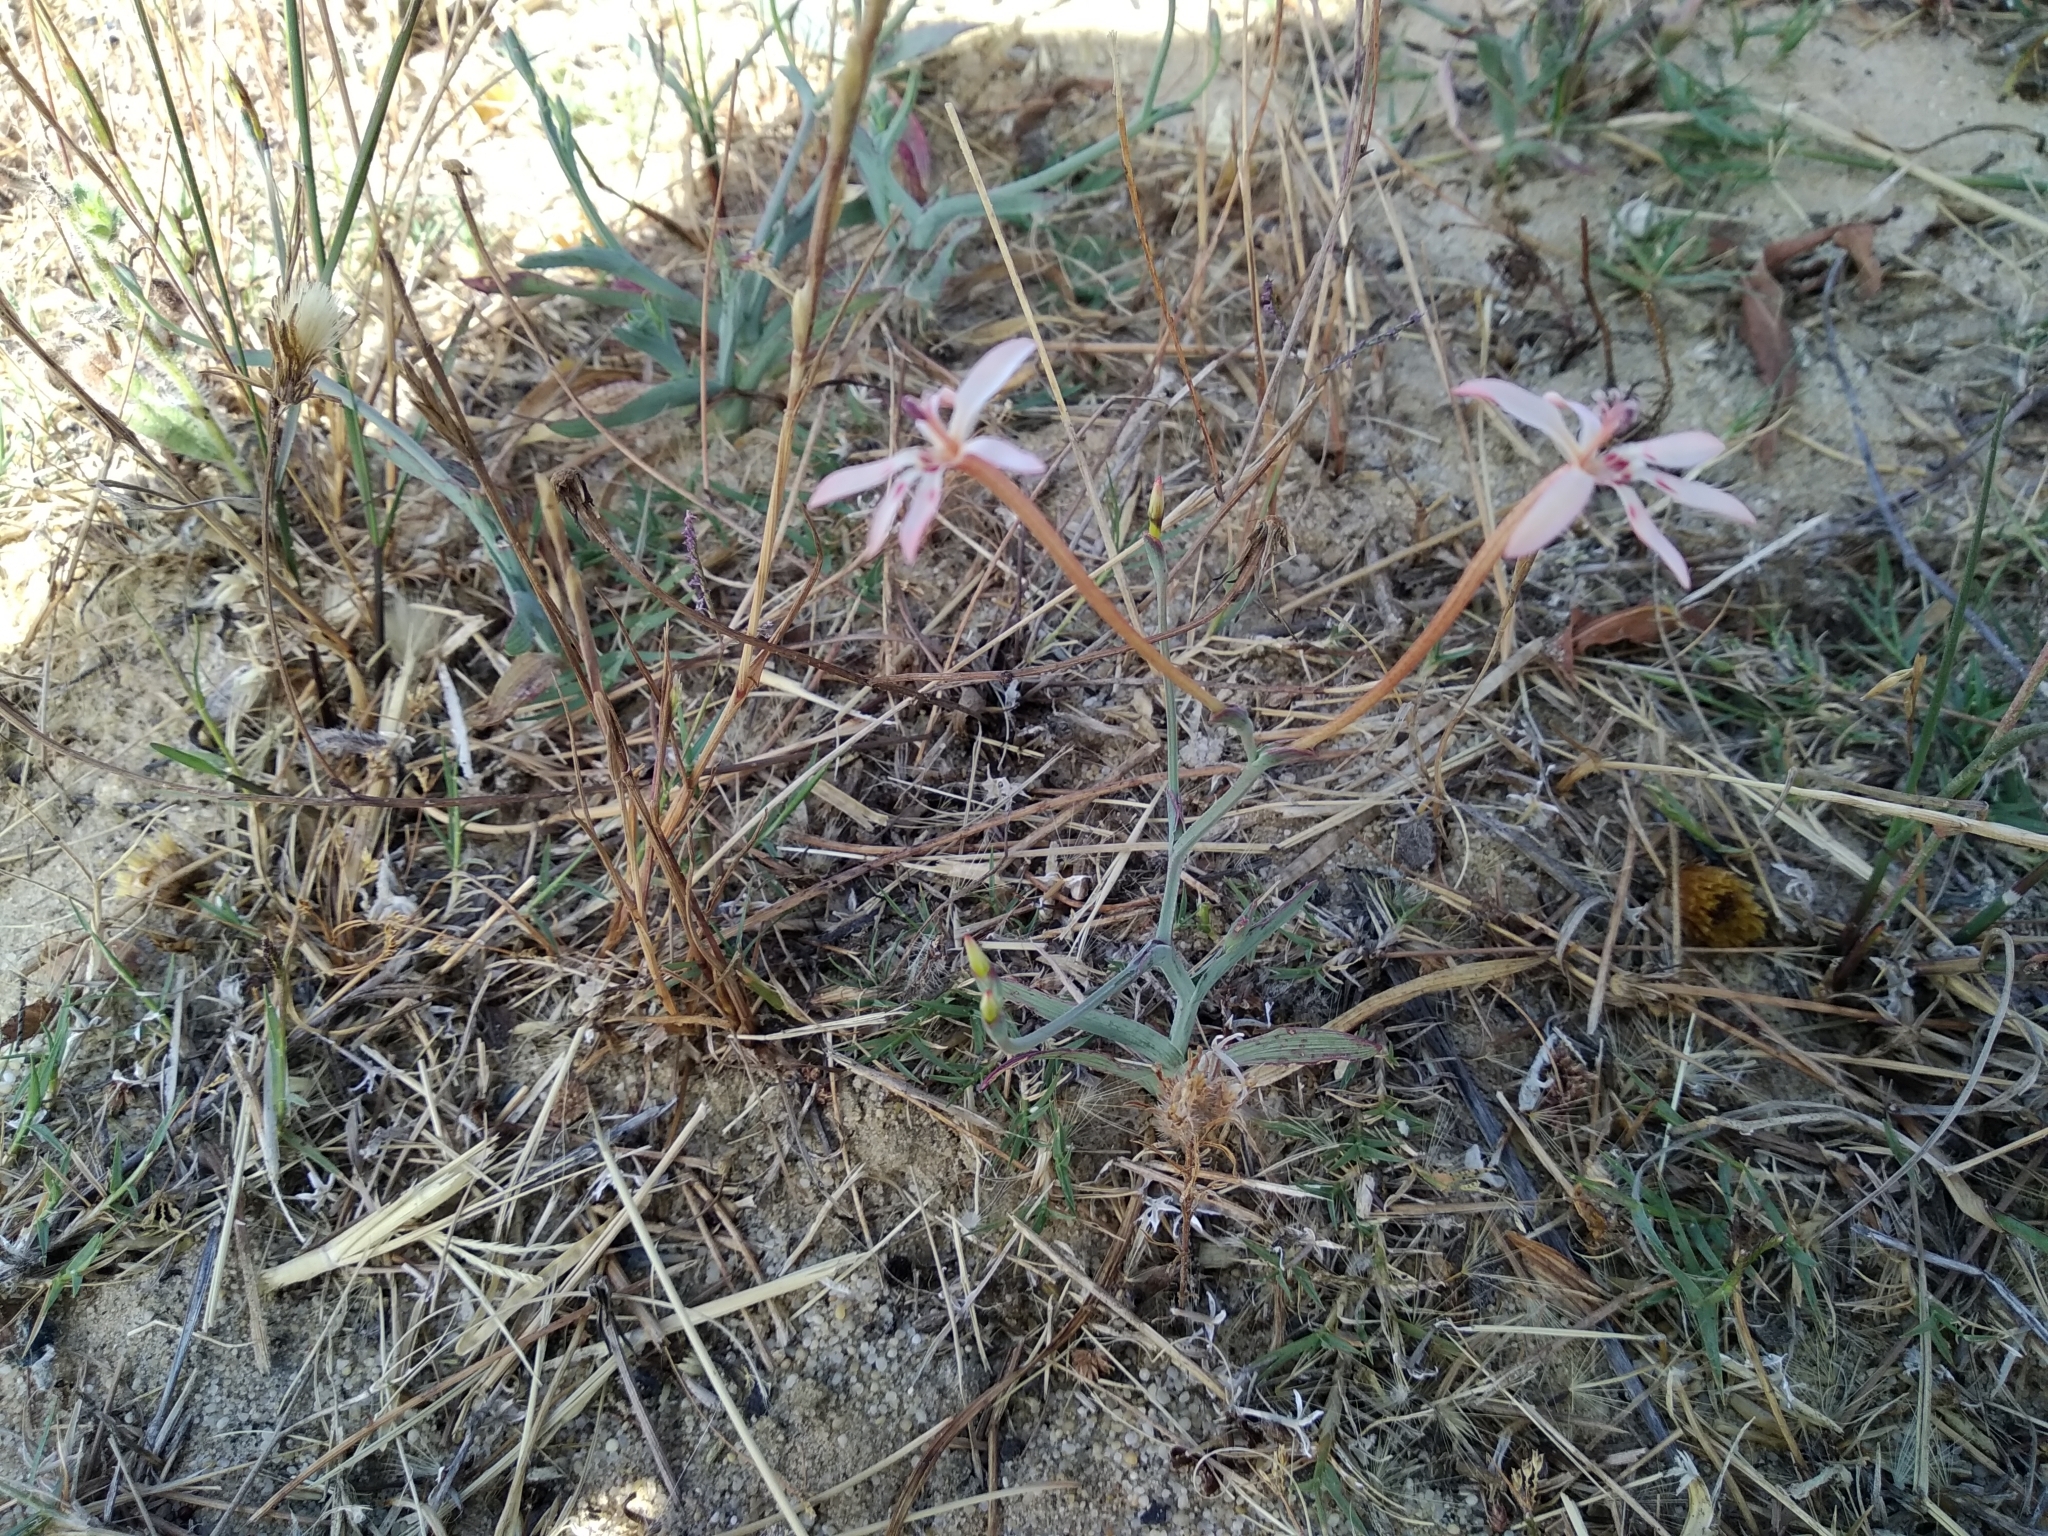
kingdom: Plantae
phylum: Tracheophyta
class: Liliopsida
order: Asparagales
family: Iridaceae
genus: Lapeirousia
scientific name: Lapeirousia anceps
